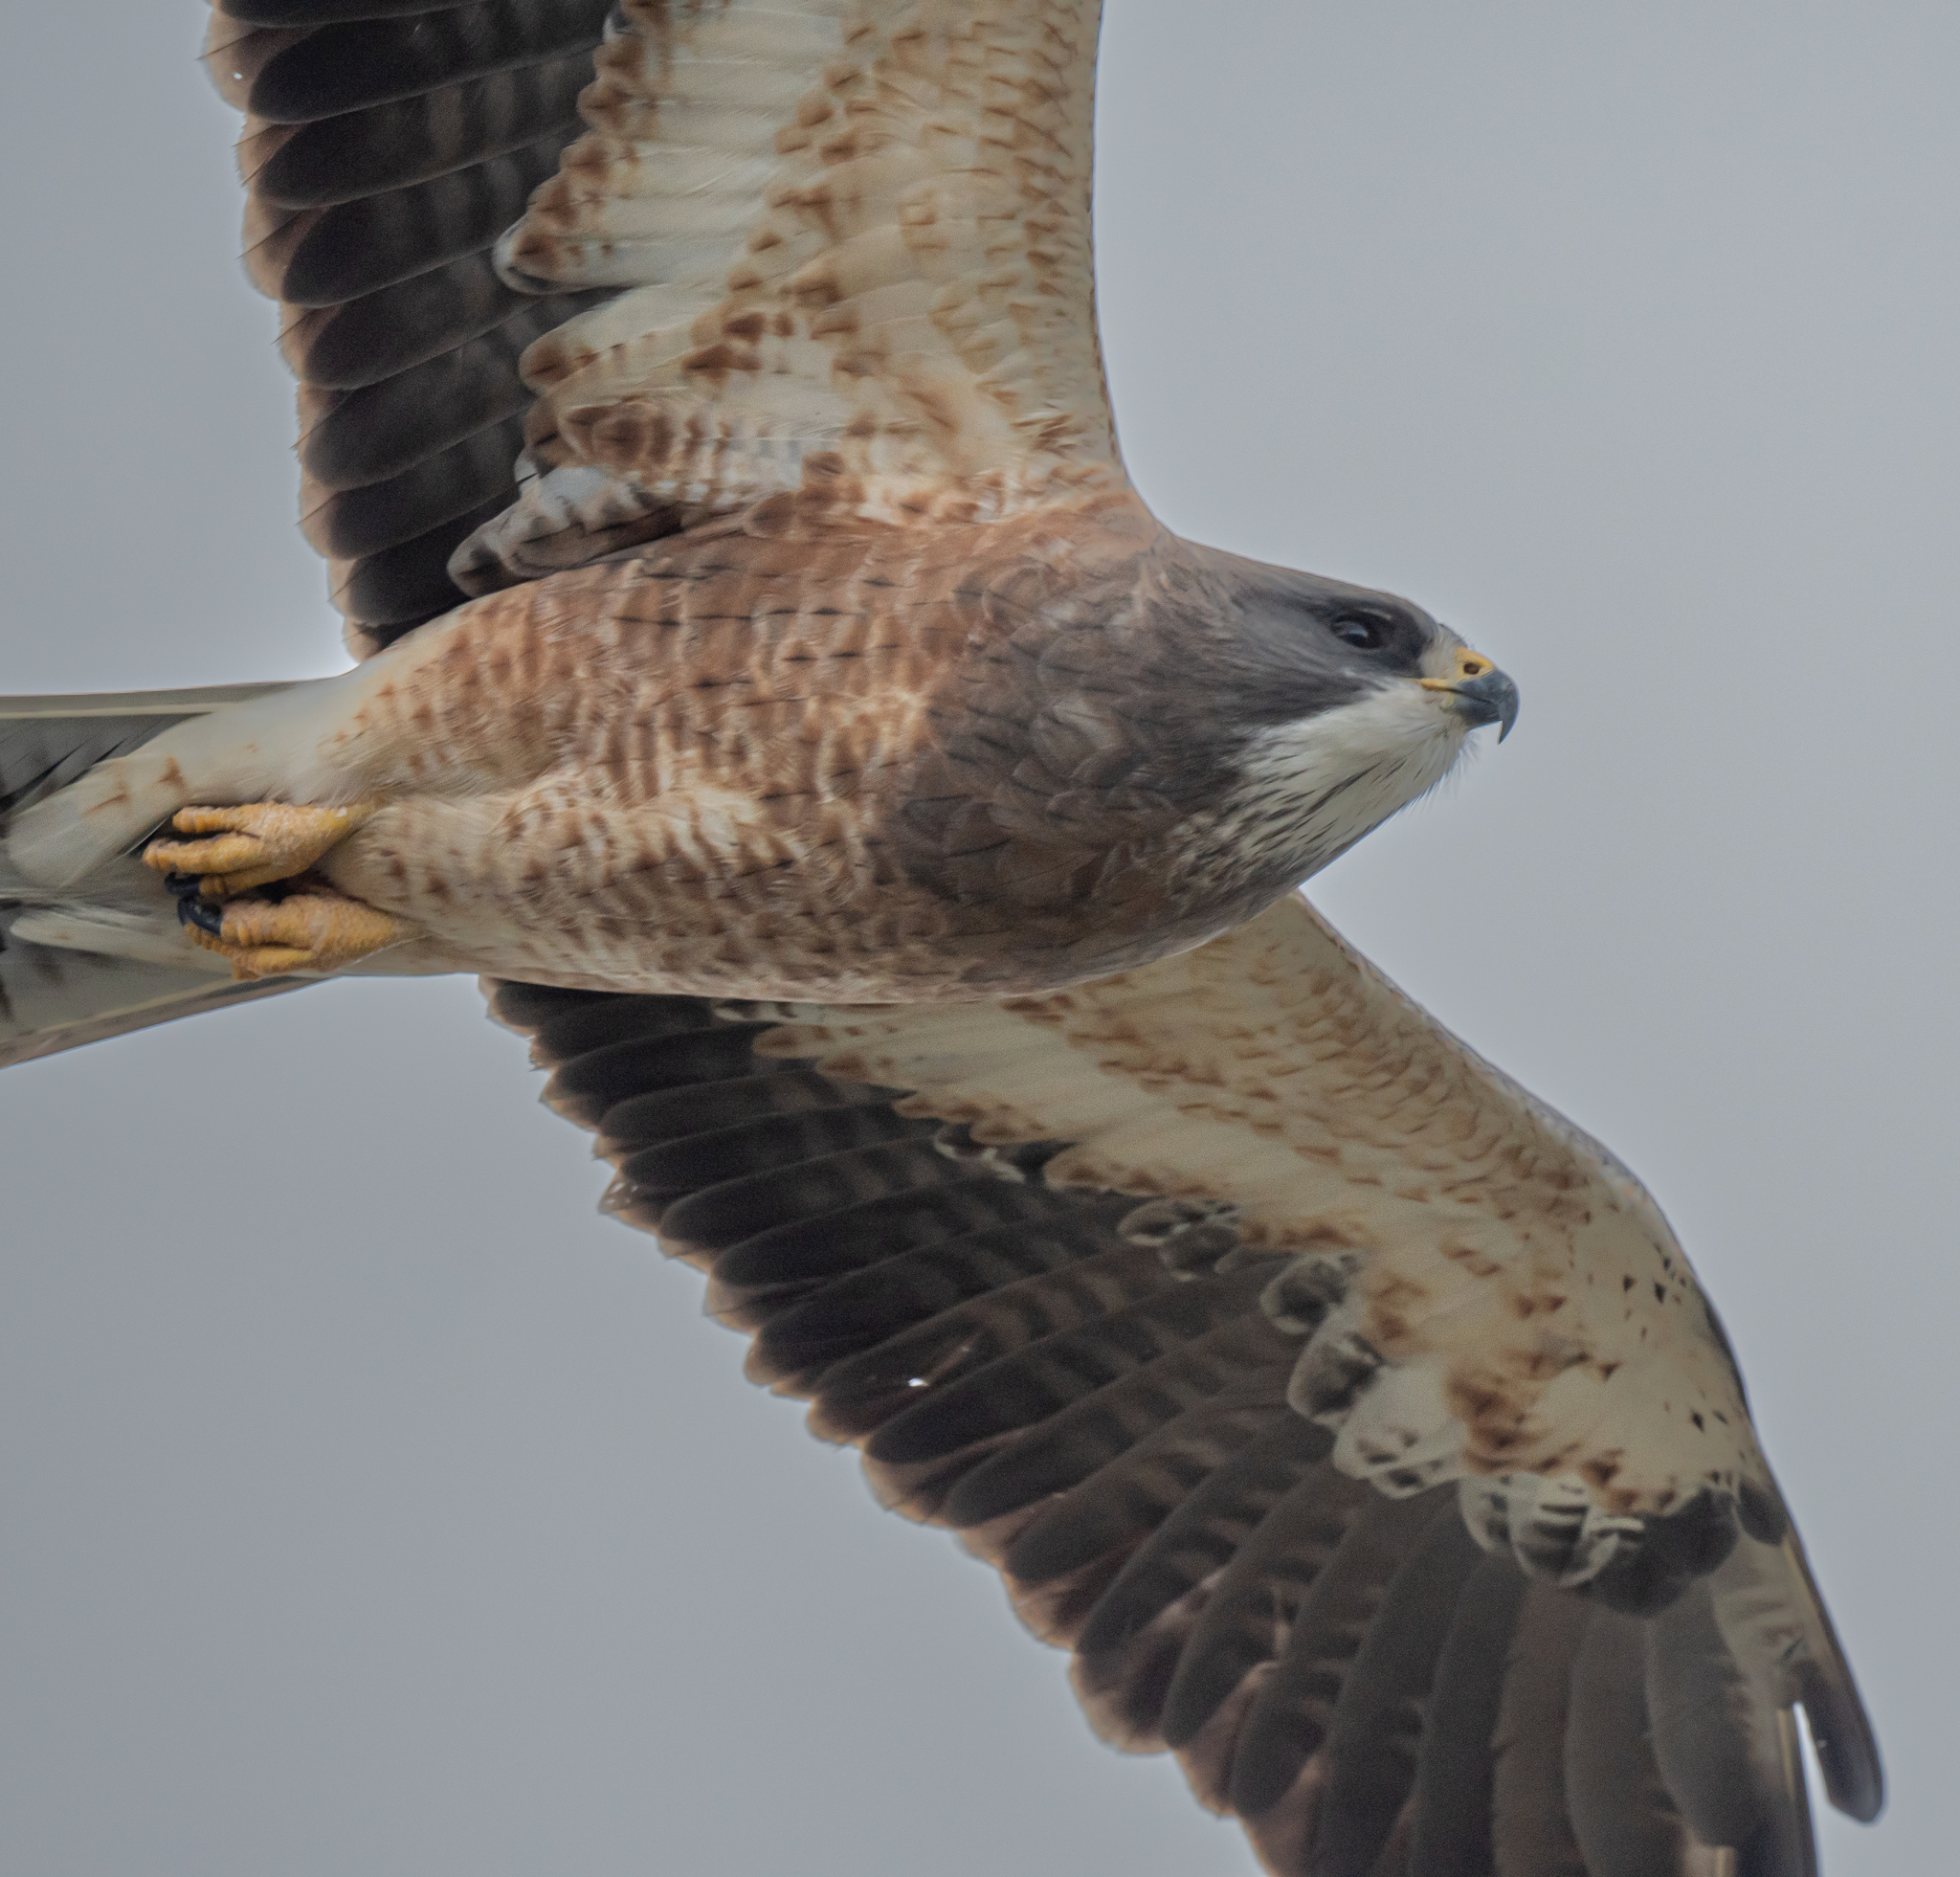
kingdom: Animalia
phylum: Chordata
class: Aves
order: Accipitriformes
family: Accipitridae
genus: Buteo
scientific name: Buteo swainsoni
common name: Swainson's hawk
